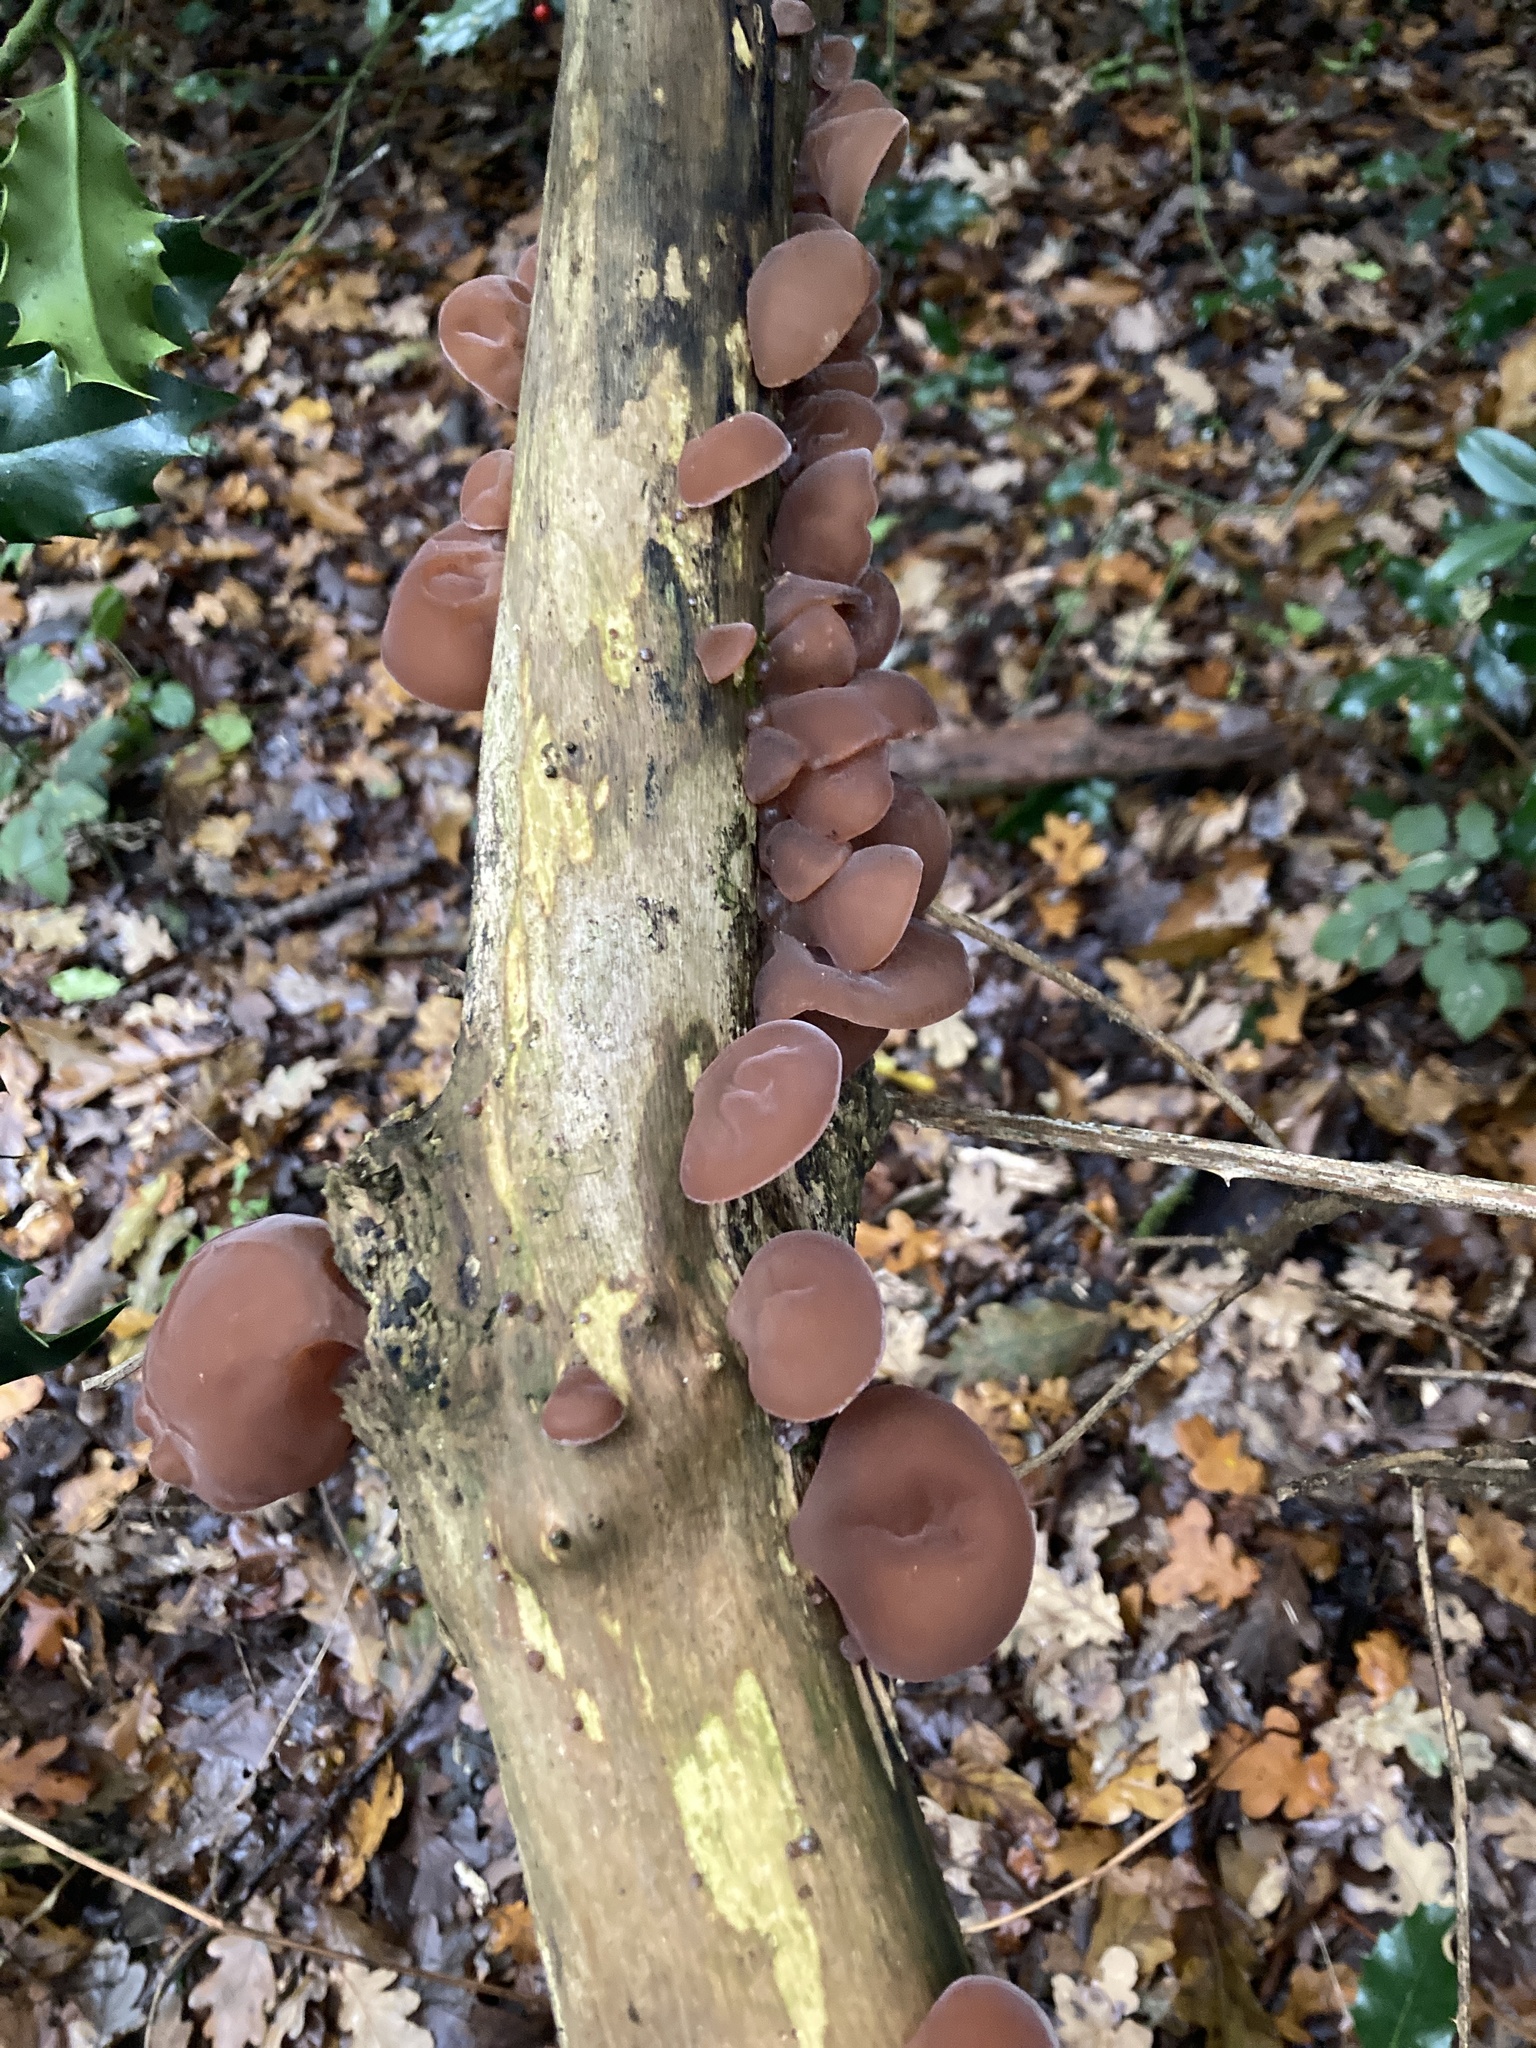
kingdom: Fungi
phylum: Basidiomycota
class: Agaricomycetes
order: Auriculariales
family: Auriculariaceae
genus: Auricularia
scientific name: Auricularia auricula-judae
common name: Jelly ear
